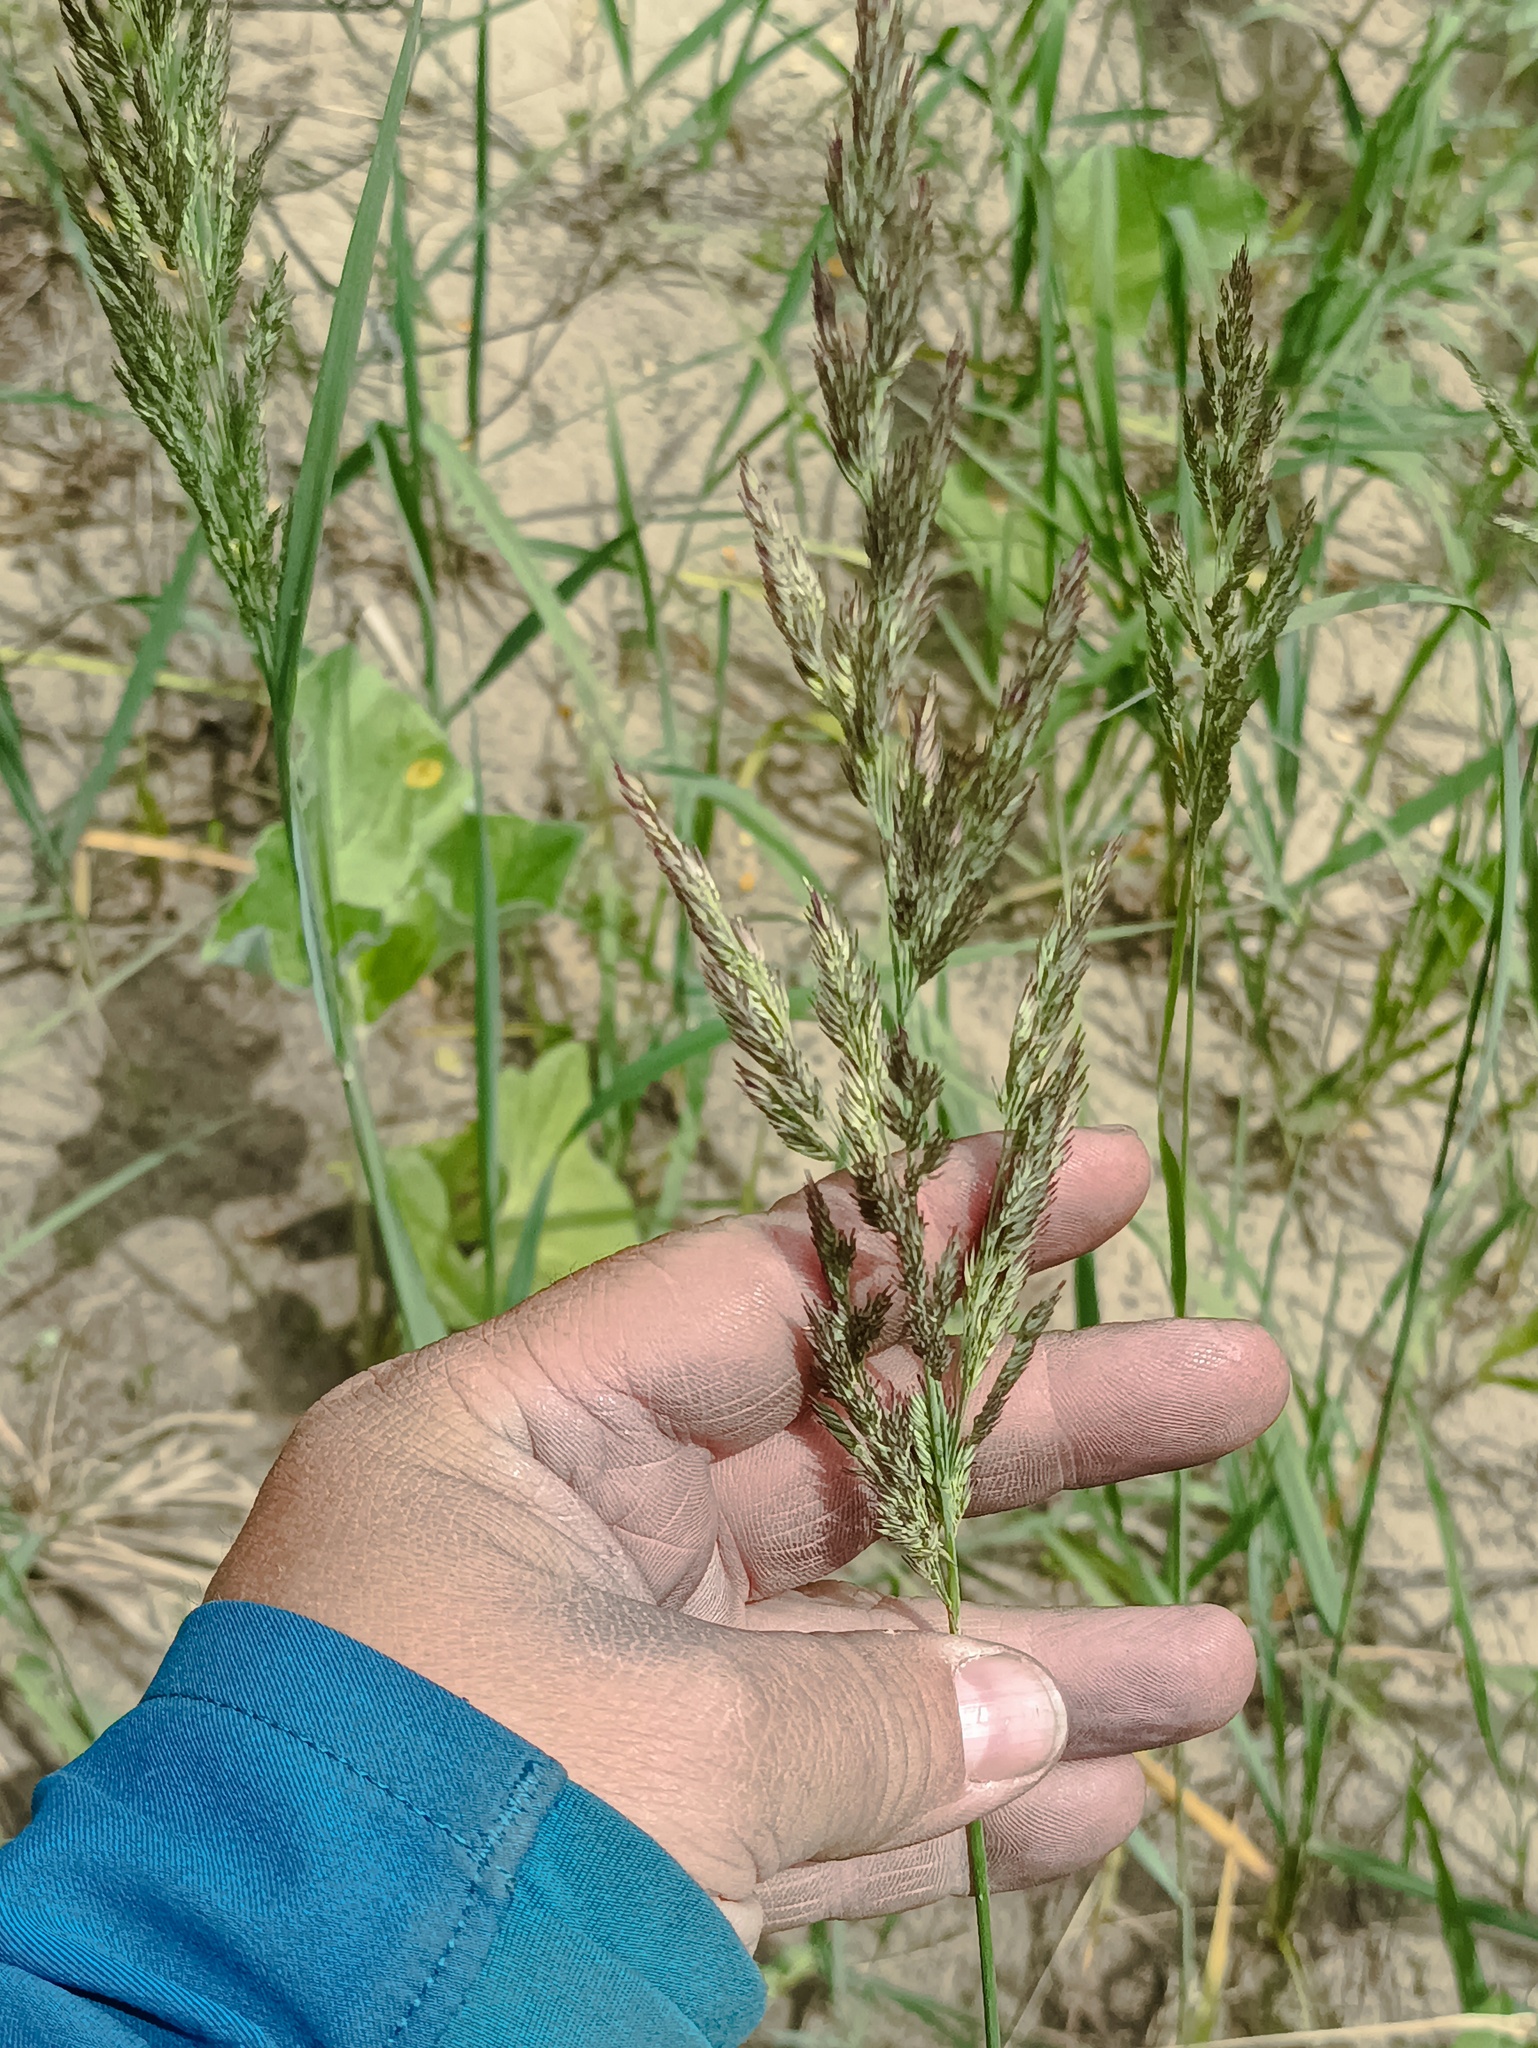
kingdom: Plantae
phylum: Tracheophyta
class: Liliopsida
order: Poales
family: Poaceae
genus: Calamagrostis
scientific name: Calamagrostis epigejos
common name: Wood small-reed
